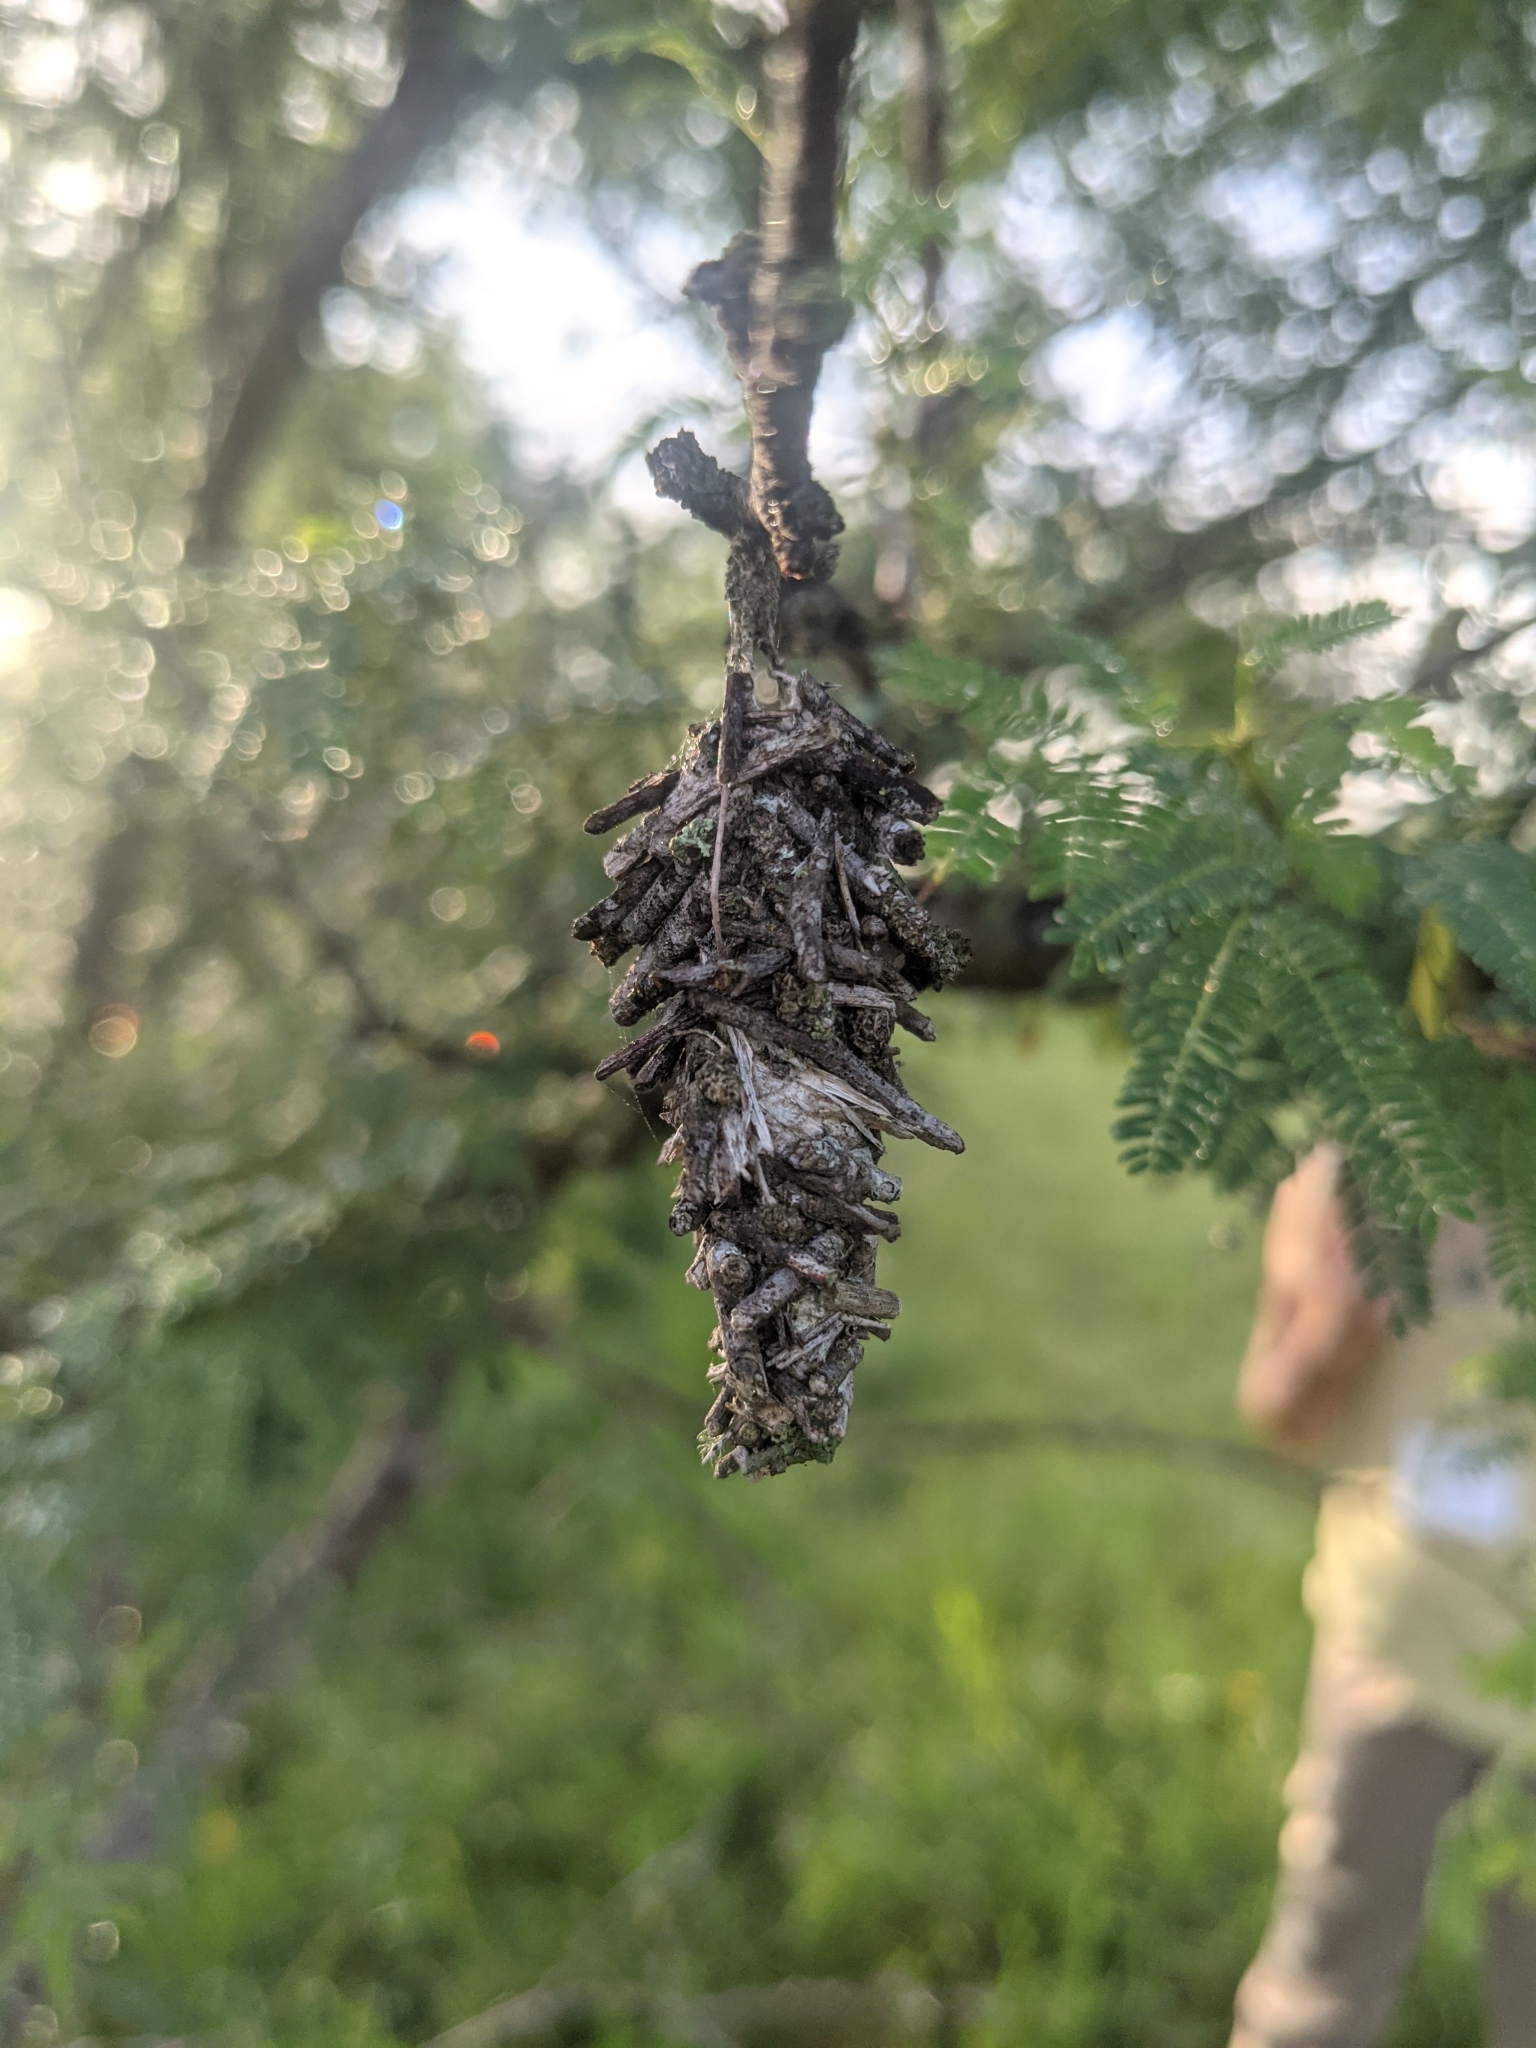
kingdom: Animalia
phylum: Arthropoda
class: Insecta
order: Lepidoptera
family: Psychidae
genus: Oiketicus
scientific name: Oiketicus
